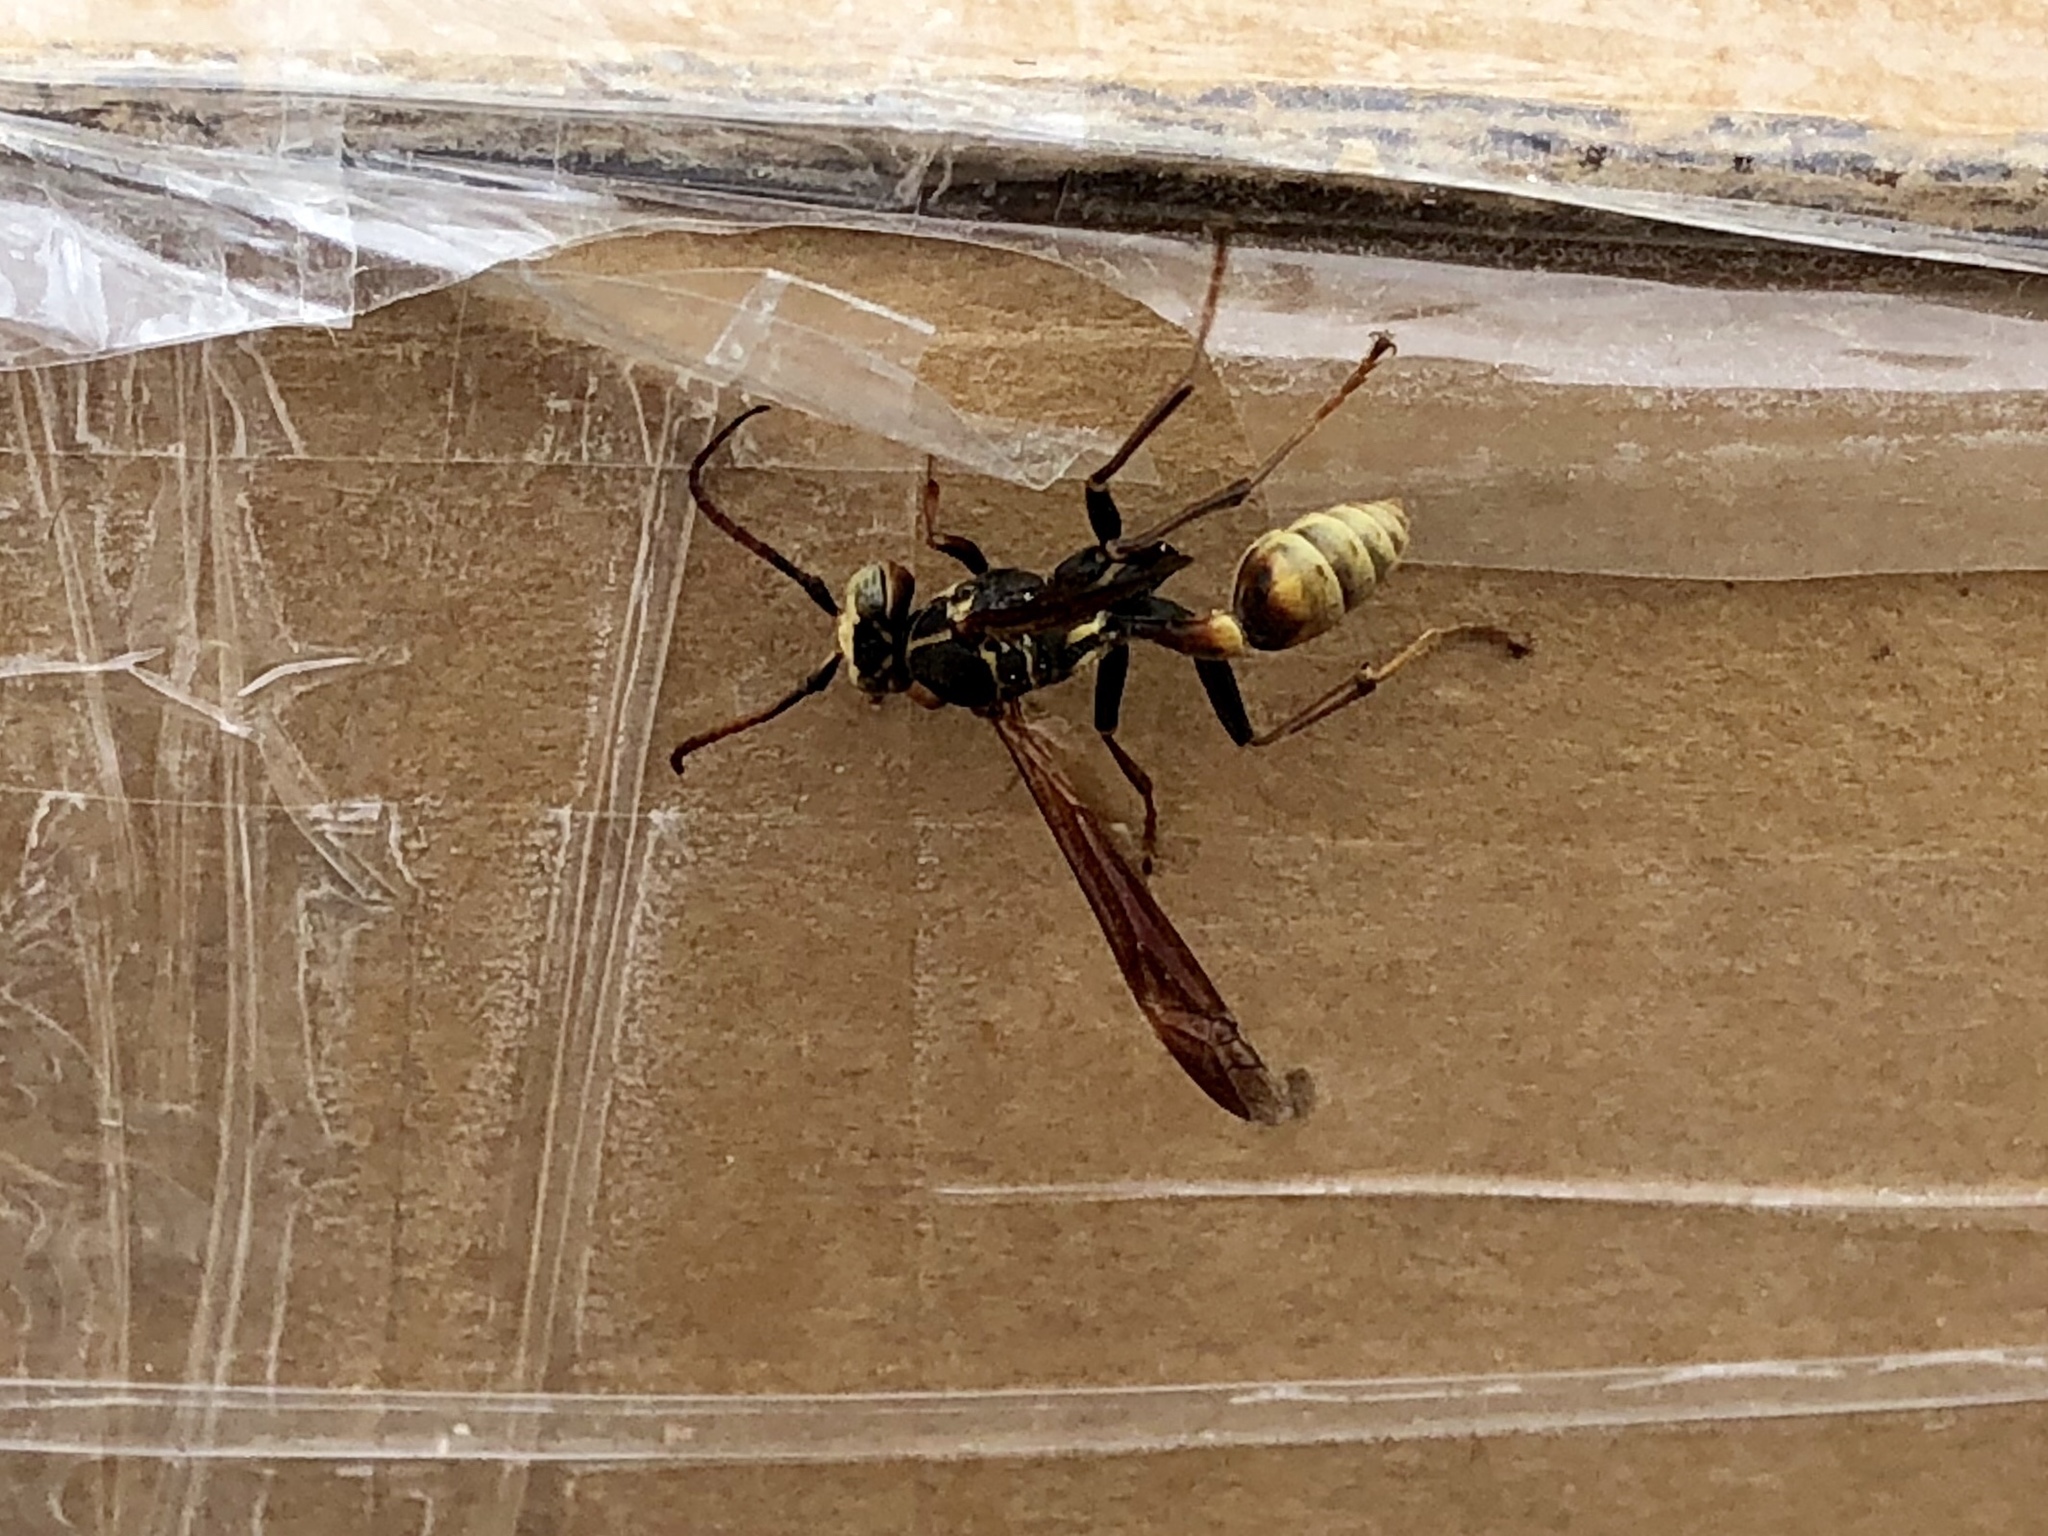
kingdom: Animalia
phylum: Arthropoda
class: Insecta
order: Hymenoptera
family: Vespidae
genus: Mischocyttarus
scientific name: Mischocyttarus flavitarsis
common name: Wasp
